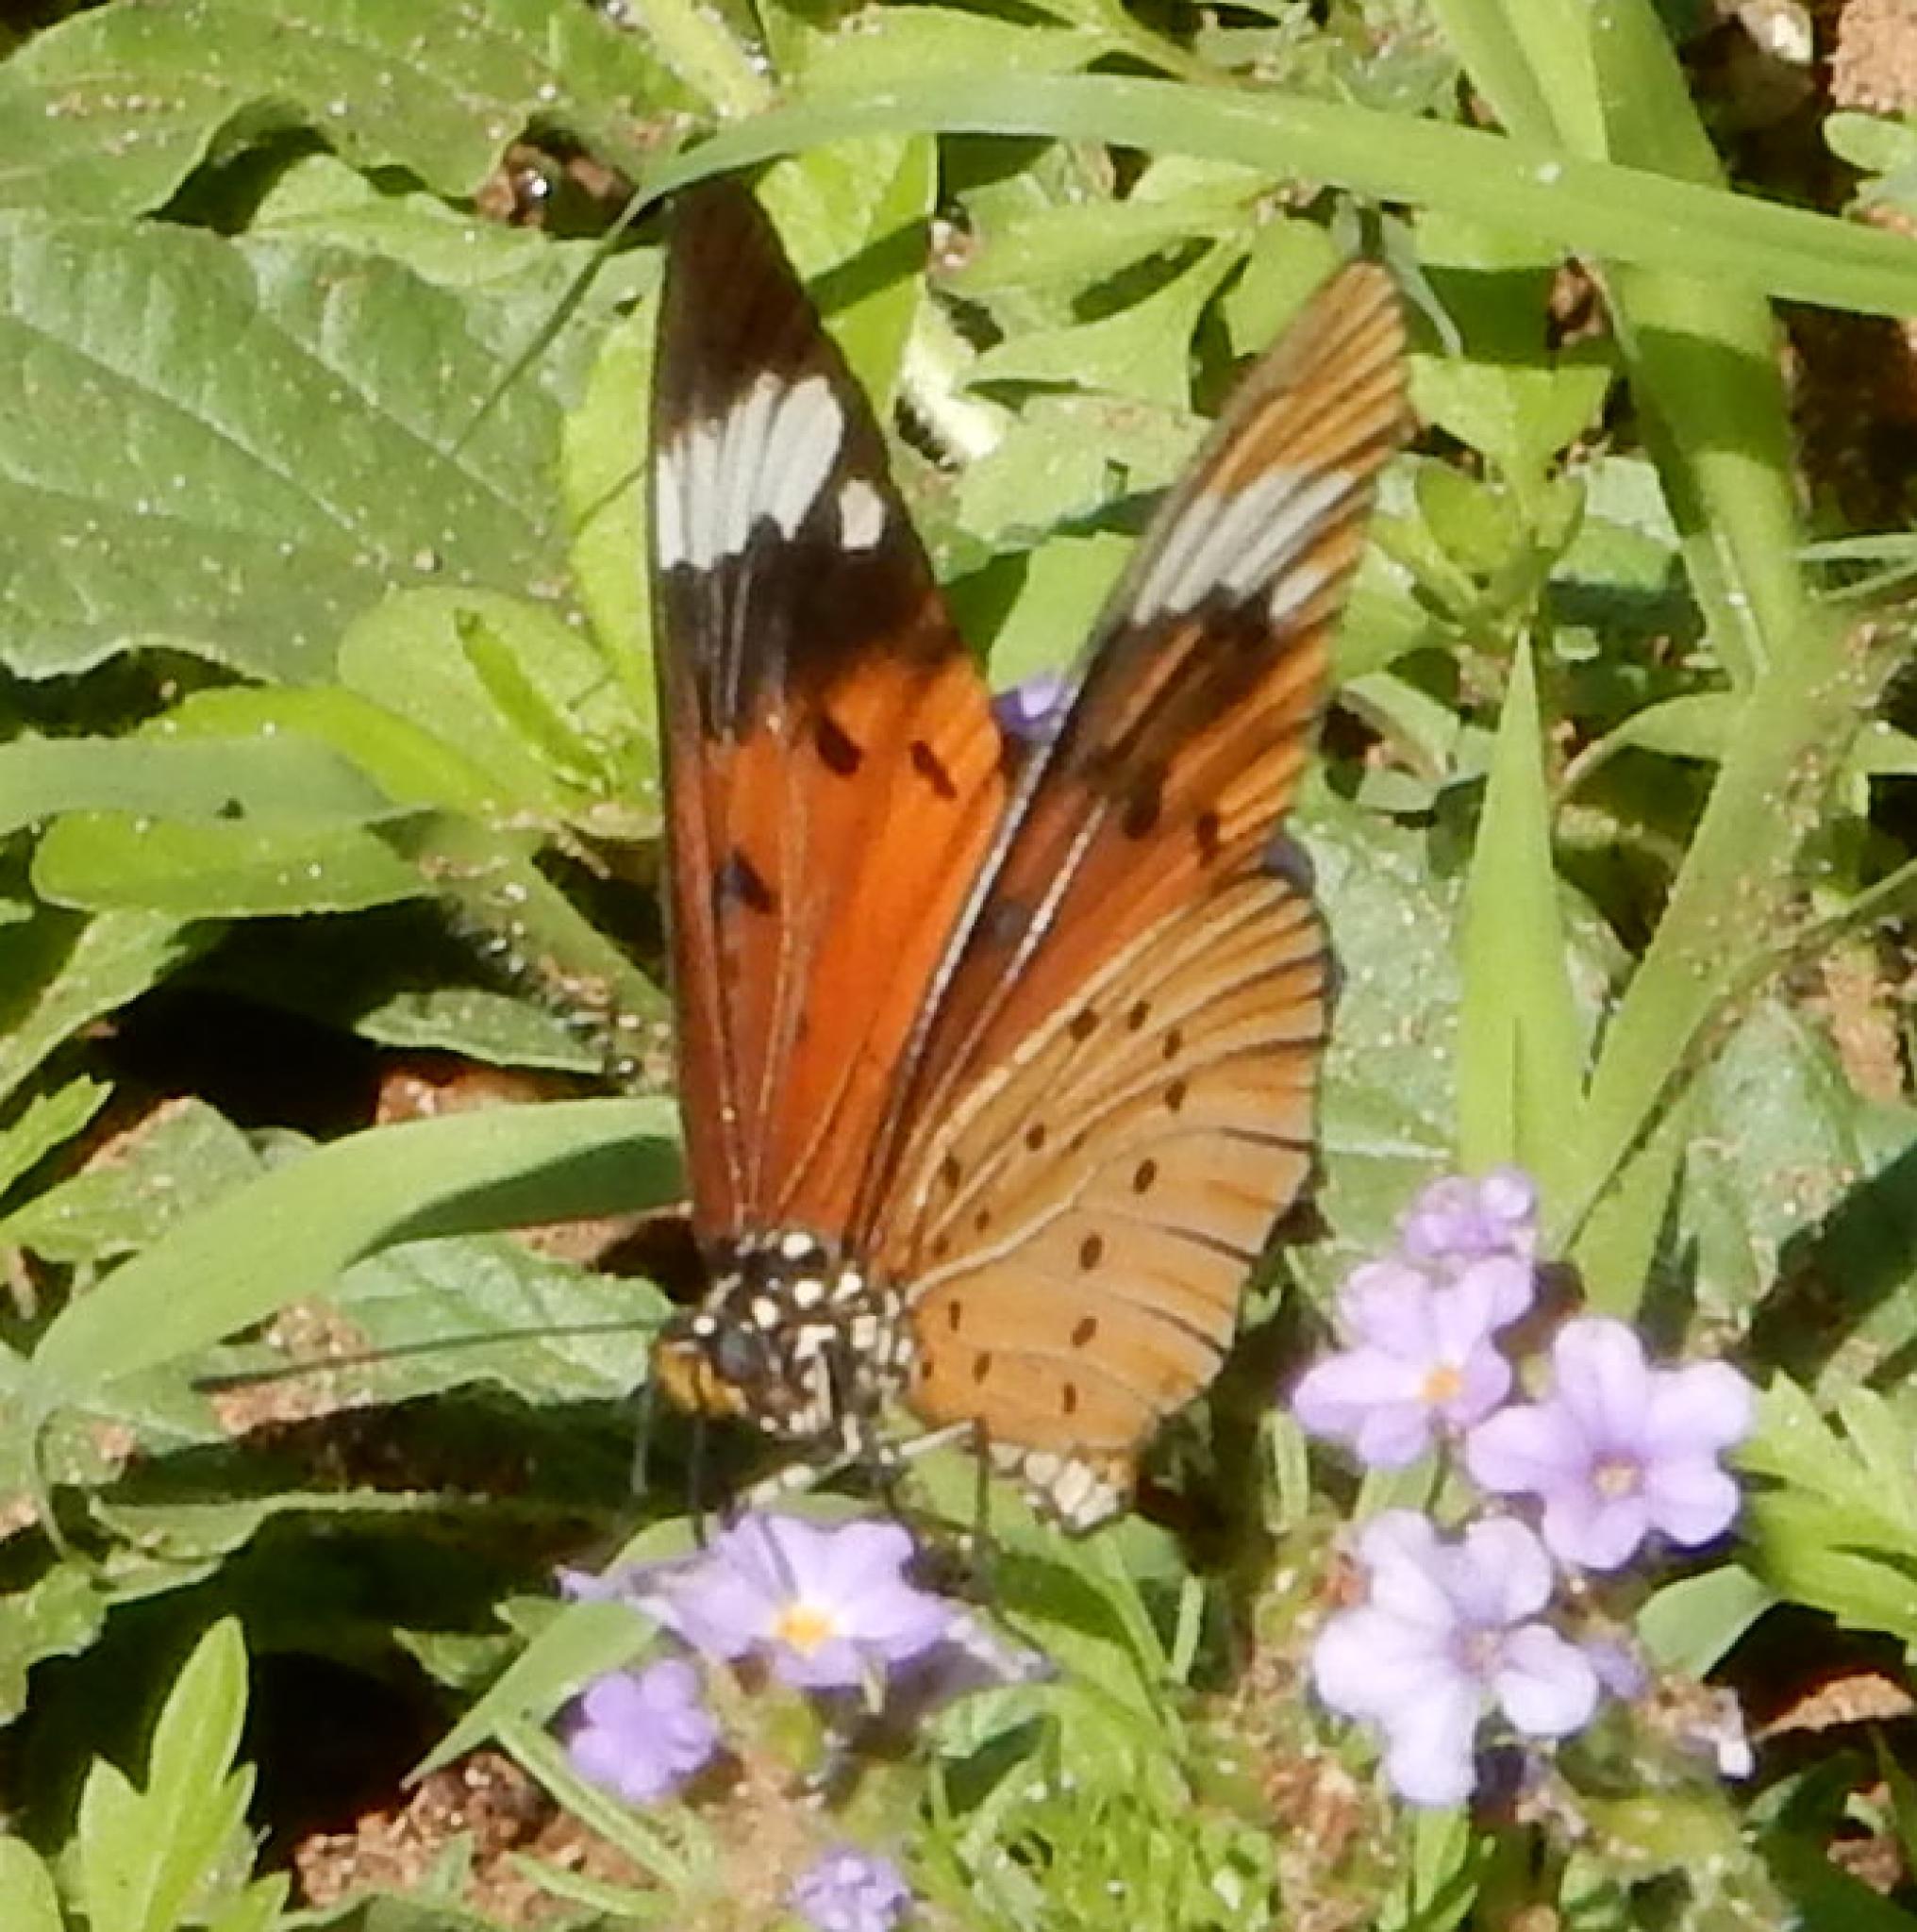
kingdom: Animalia
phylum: Arthropoda
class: Insecta
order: Lepidoptera
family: Nymphalidae
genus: Acraea
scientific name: Acraea Telchinia encedon
